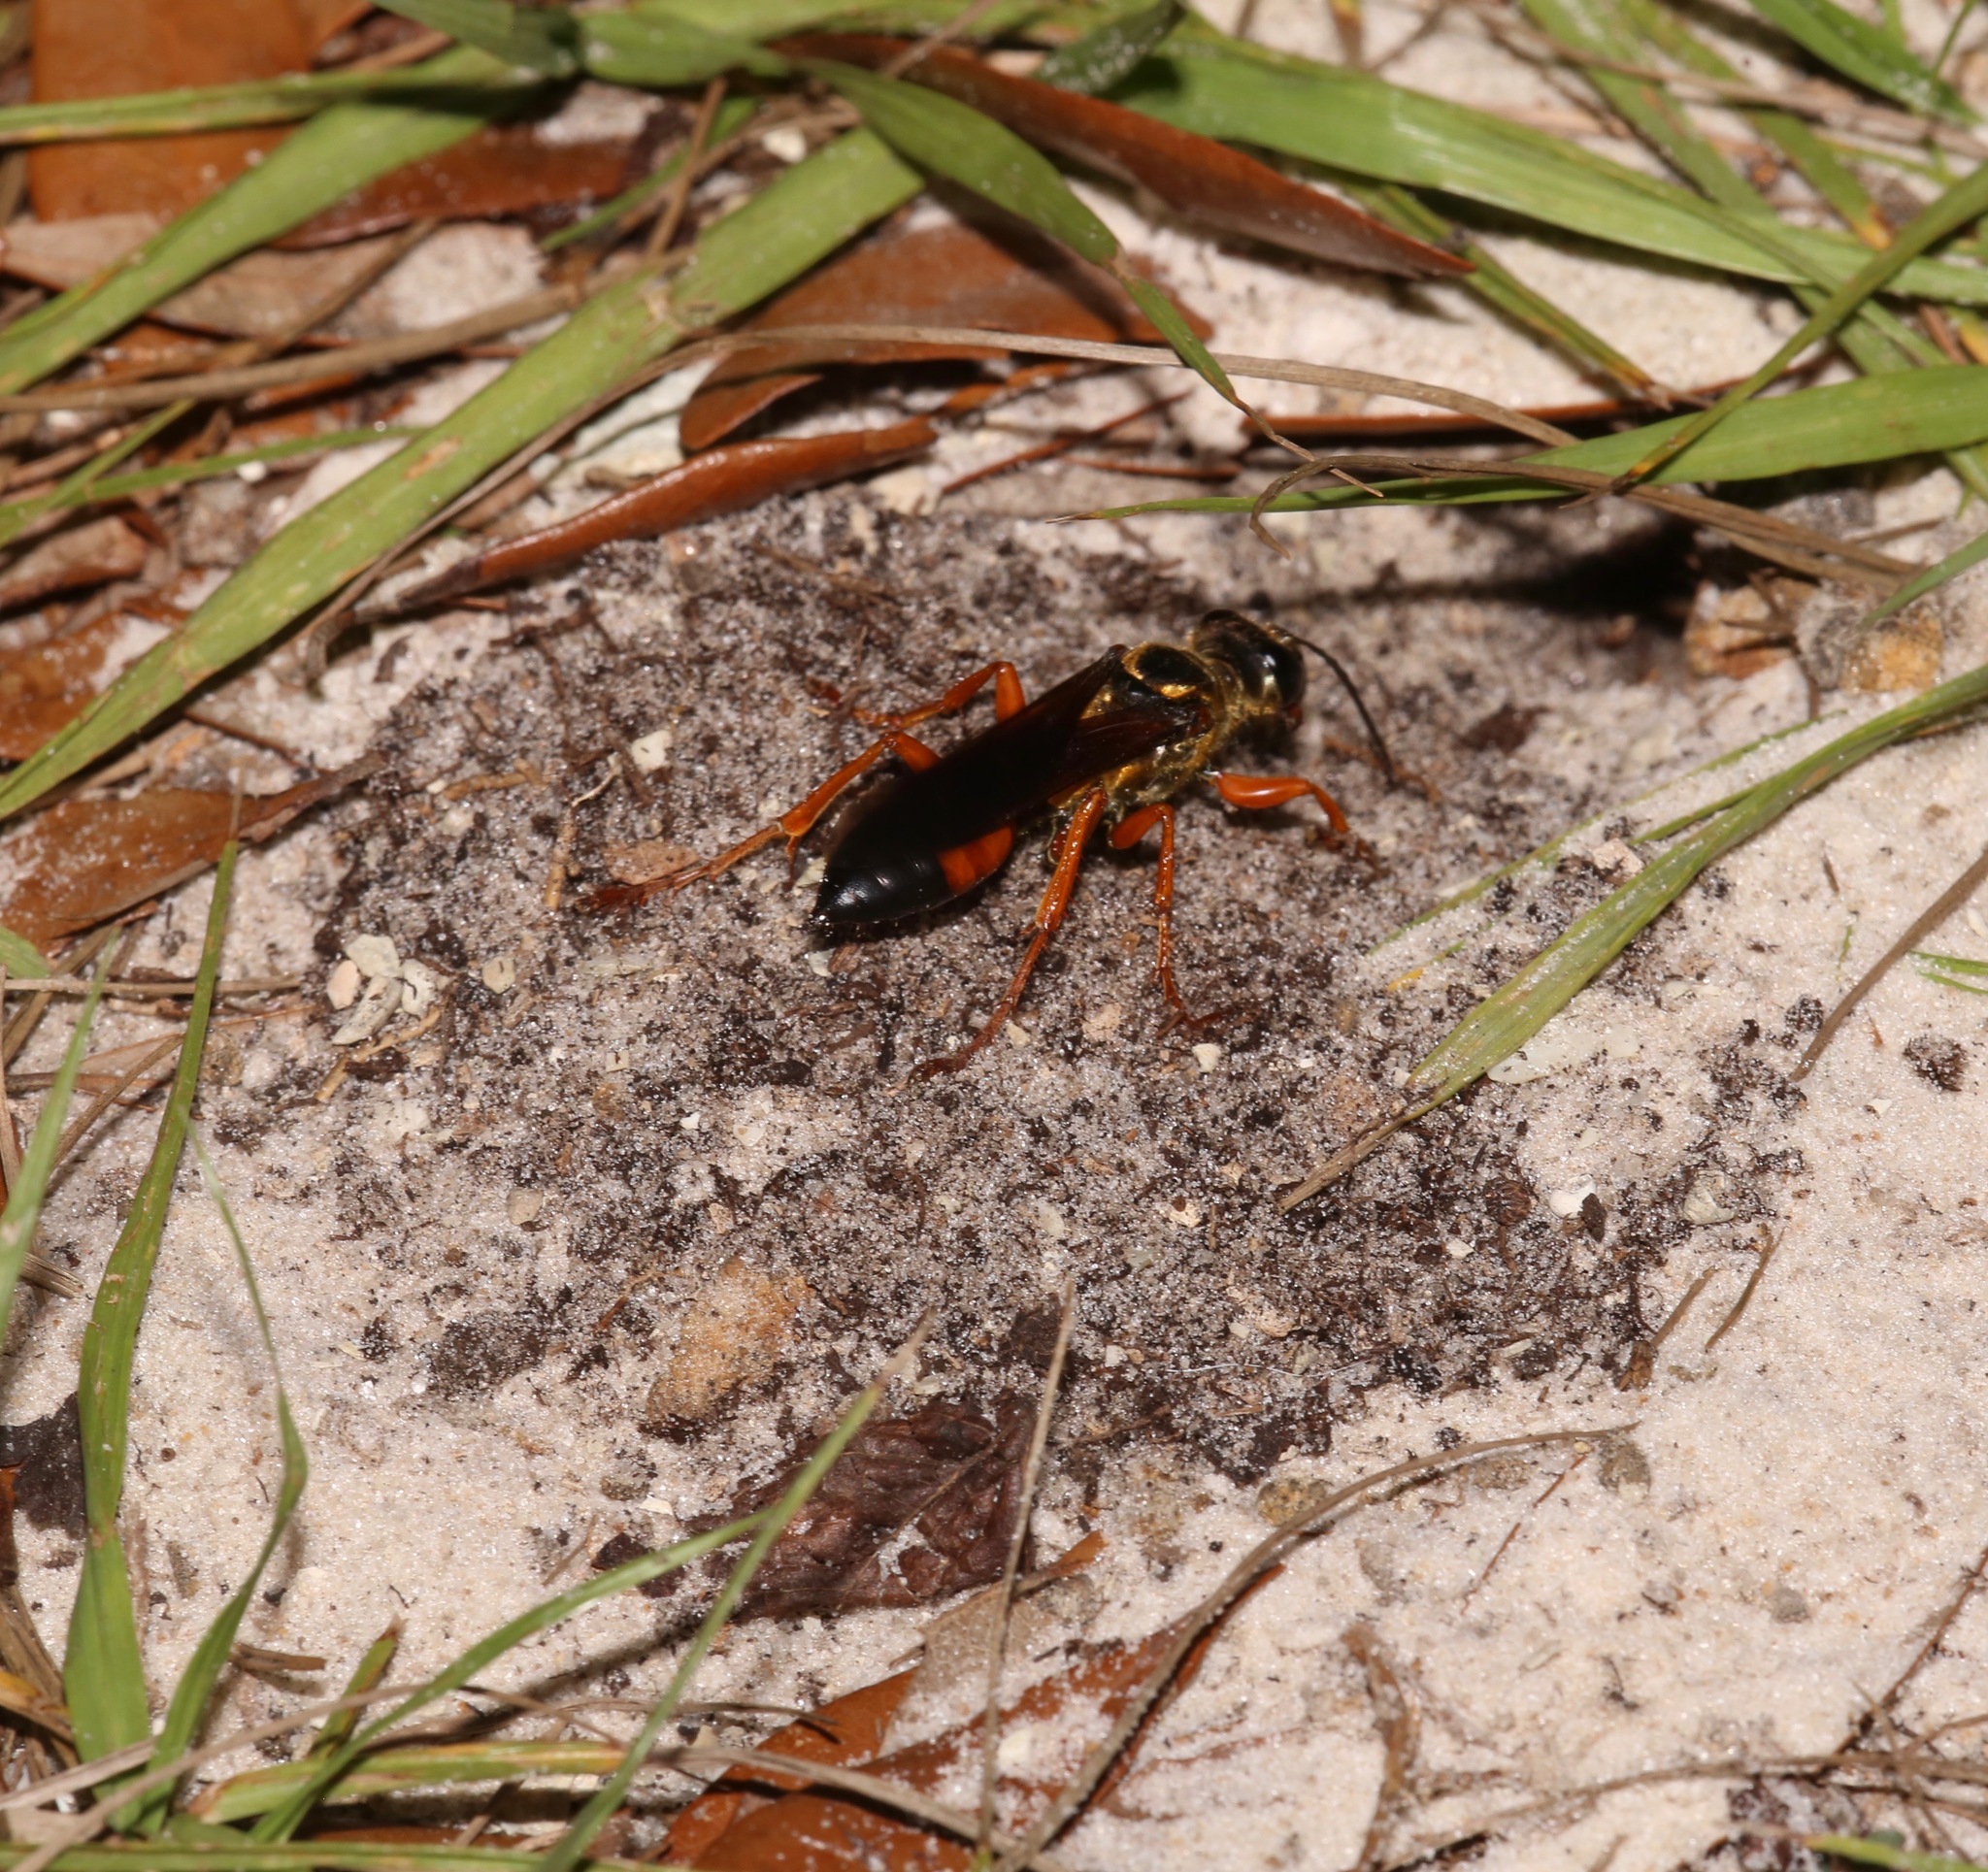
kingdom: Animalia
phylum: Arthropoda
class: Insecta
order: Hymenoptera
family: Sphecidae
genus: Sphex
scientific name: Sphex ichneumoneus
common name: Great golden digger wasp
